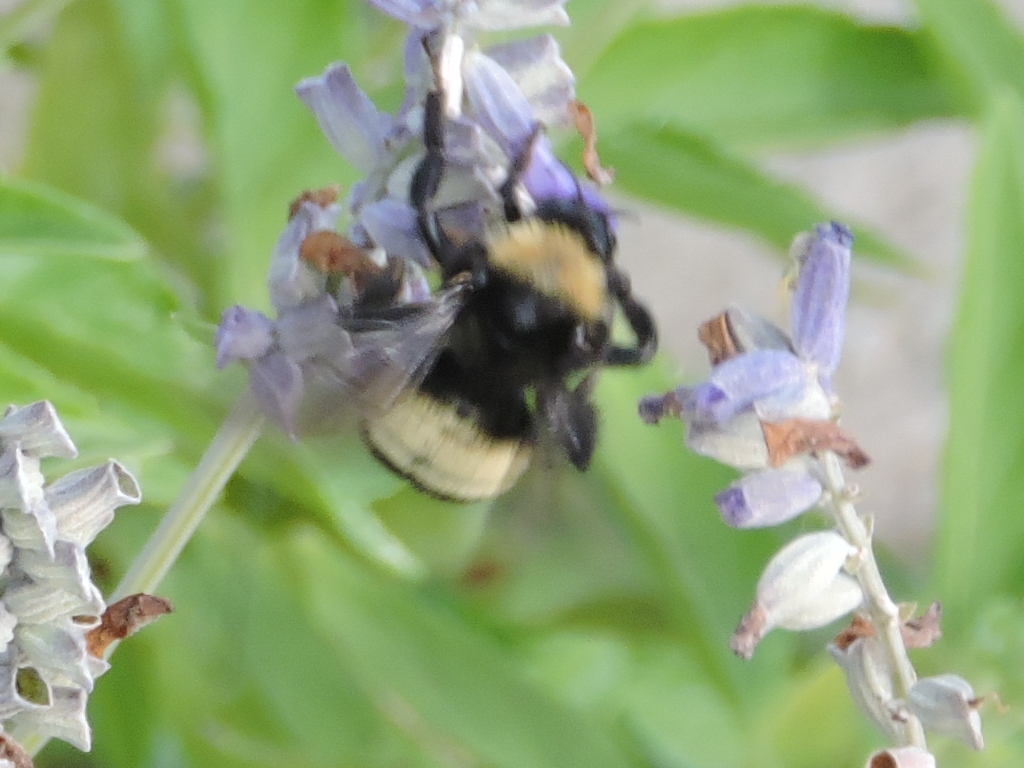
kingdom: Animalia
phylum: Arthropoda
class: Insecta
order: Hymenoptera
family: Apidae
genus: Bombus
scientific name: Bombus pensylvanicus
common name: Bumble bee
